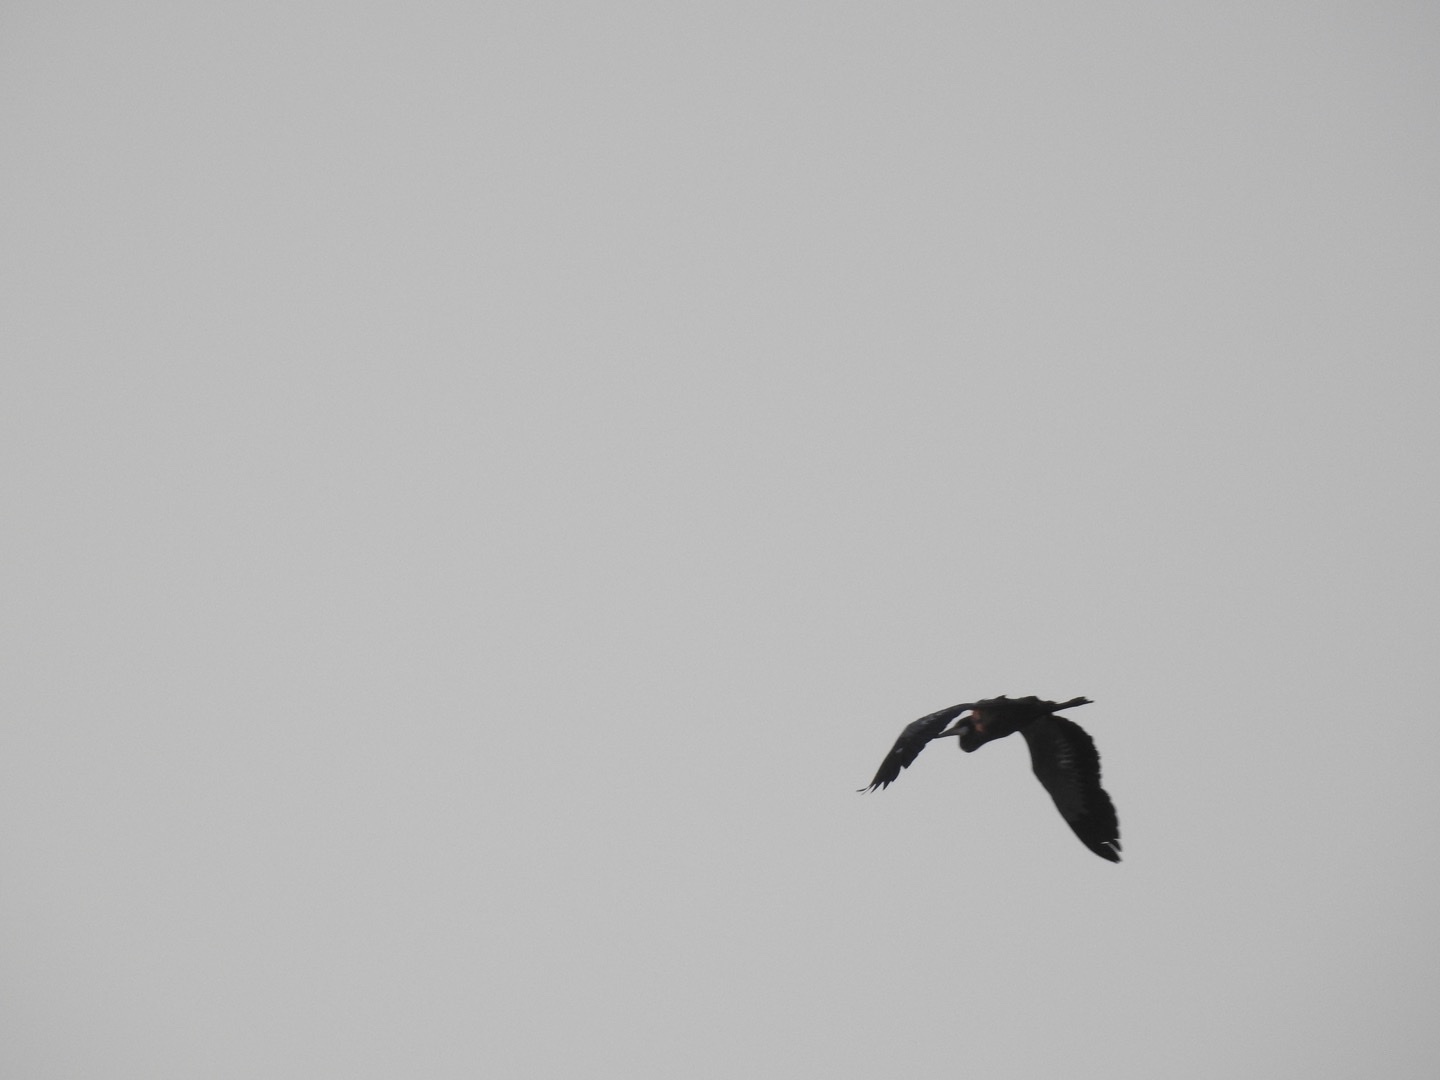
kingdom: Animalia
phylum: Chordata
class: Aves
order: Pelecaniformes
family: Ardeidae
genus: Ardea
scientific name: Ardea melanocephala
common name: Black-headed heron
